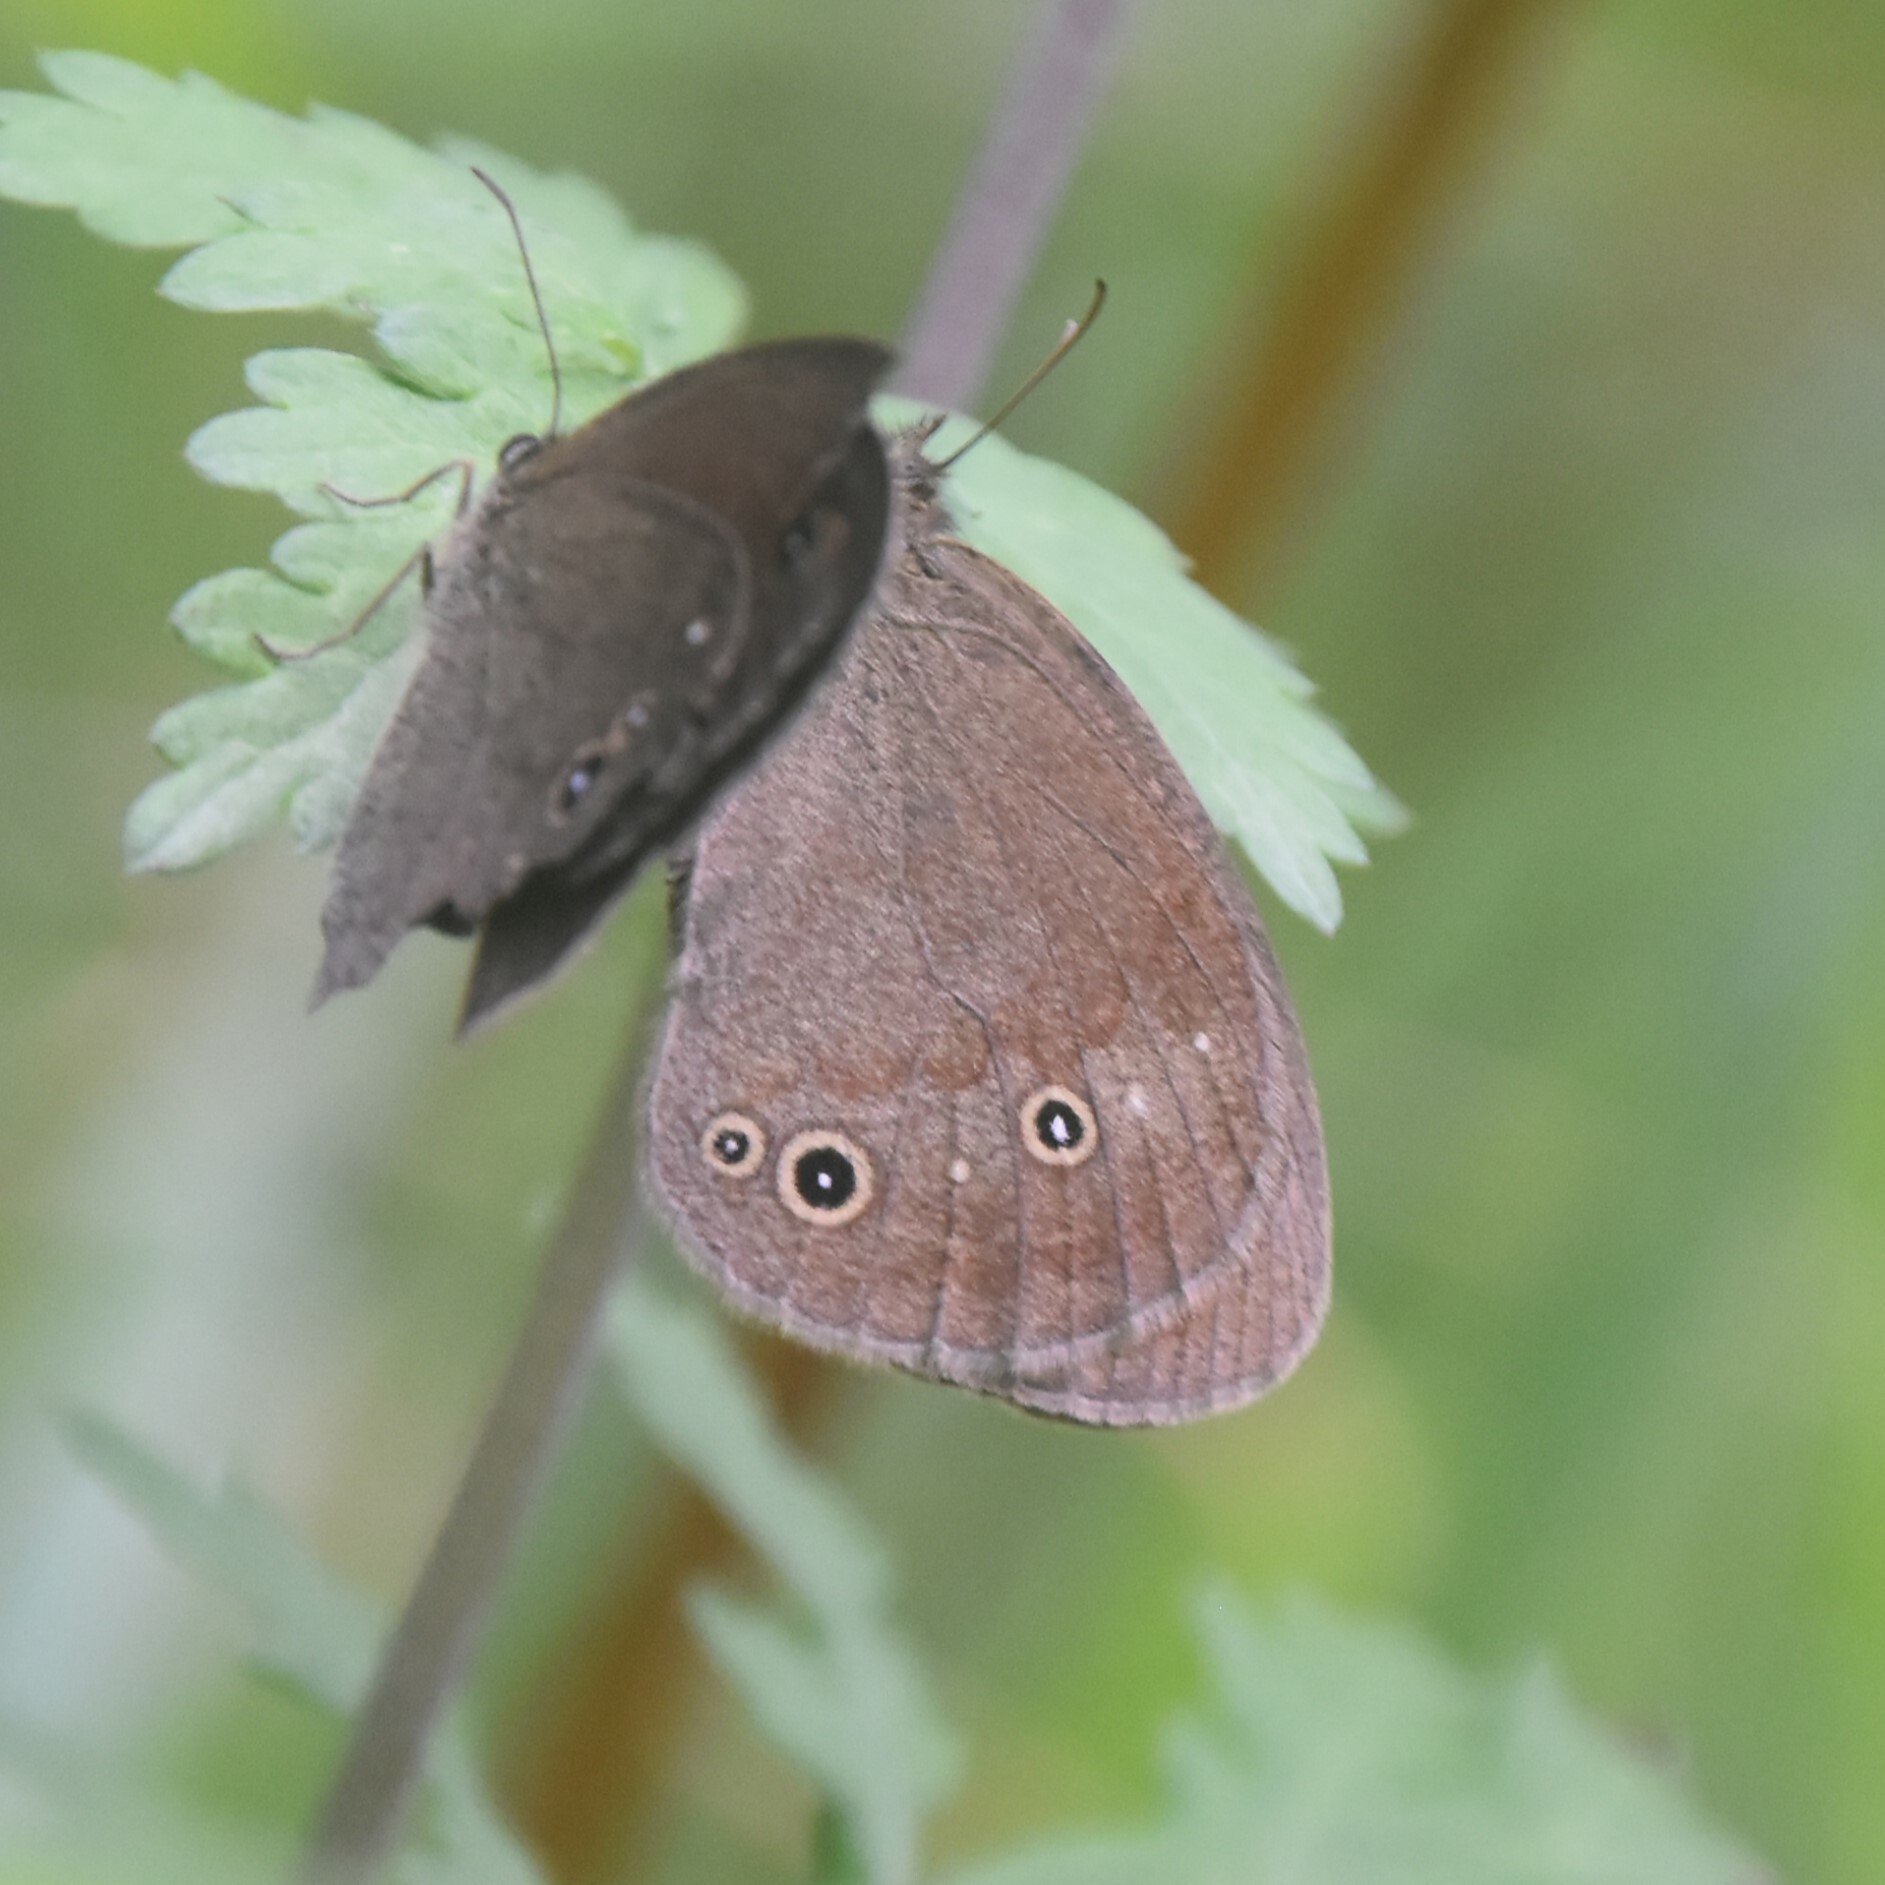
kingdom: Animalia
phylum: Arthropoda
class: Insecta
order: Lepidoptera
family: Nymphalidae
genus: Callerebia
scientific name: Callerebia nirmala
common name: Common argus
